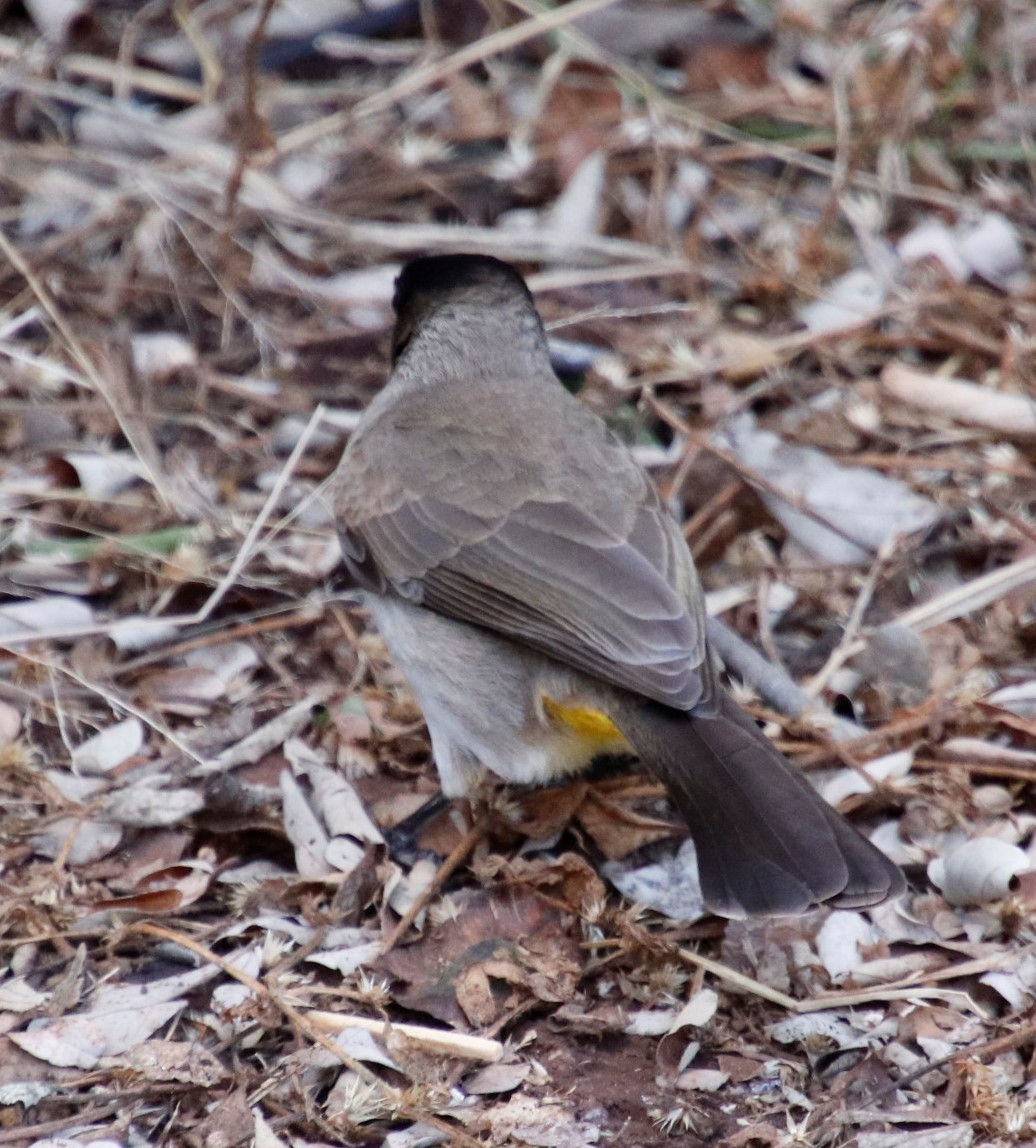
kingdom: Animalia
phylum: Chordata
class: Aves
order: Passeriformes
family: Pycnonotidae
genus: Pycnonotus
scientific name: Pycnonotus barbatus
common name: Common bulbul
